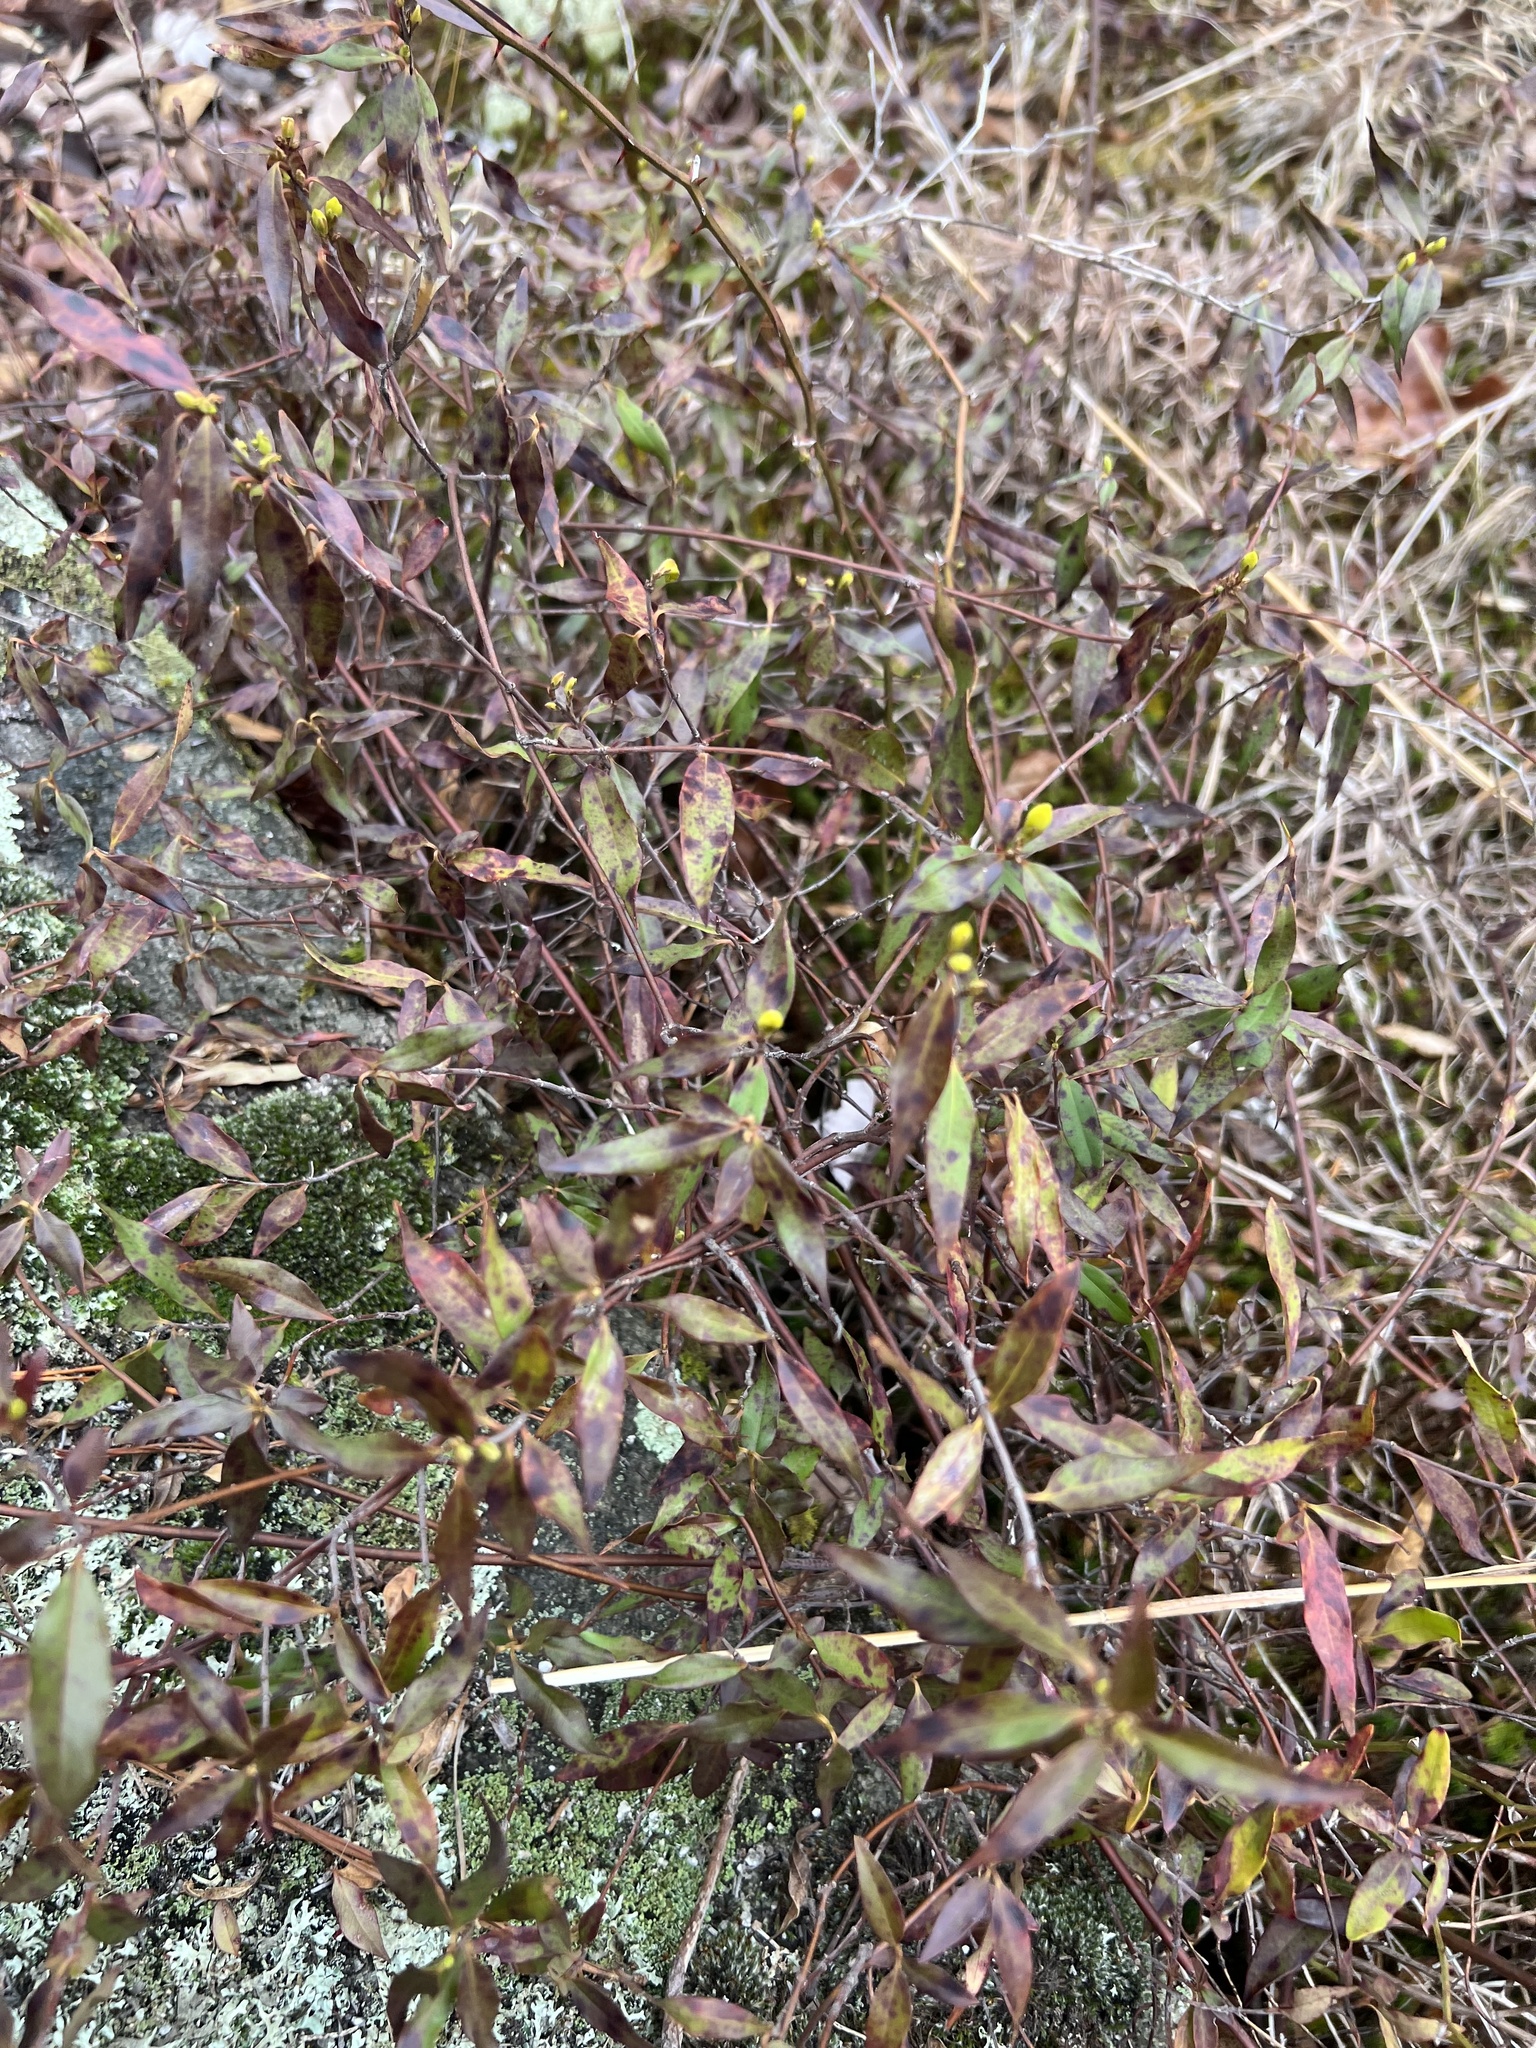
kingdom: Plantae
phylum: Tracheophyta
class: Magnoliopsida
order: Gentianales
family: Gelsemiaceae
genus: Gelsemium
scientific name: Gelsemium sempervirens
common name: Carolina-jasmine
